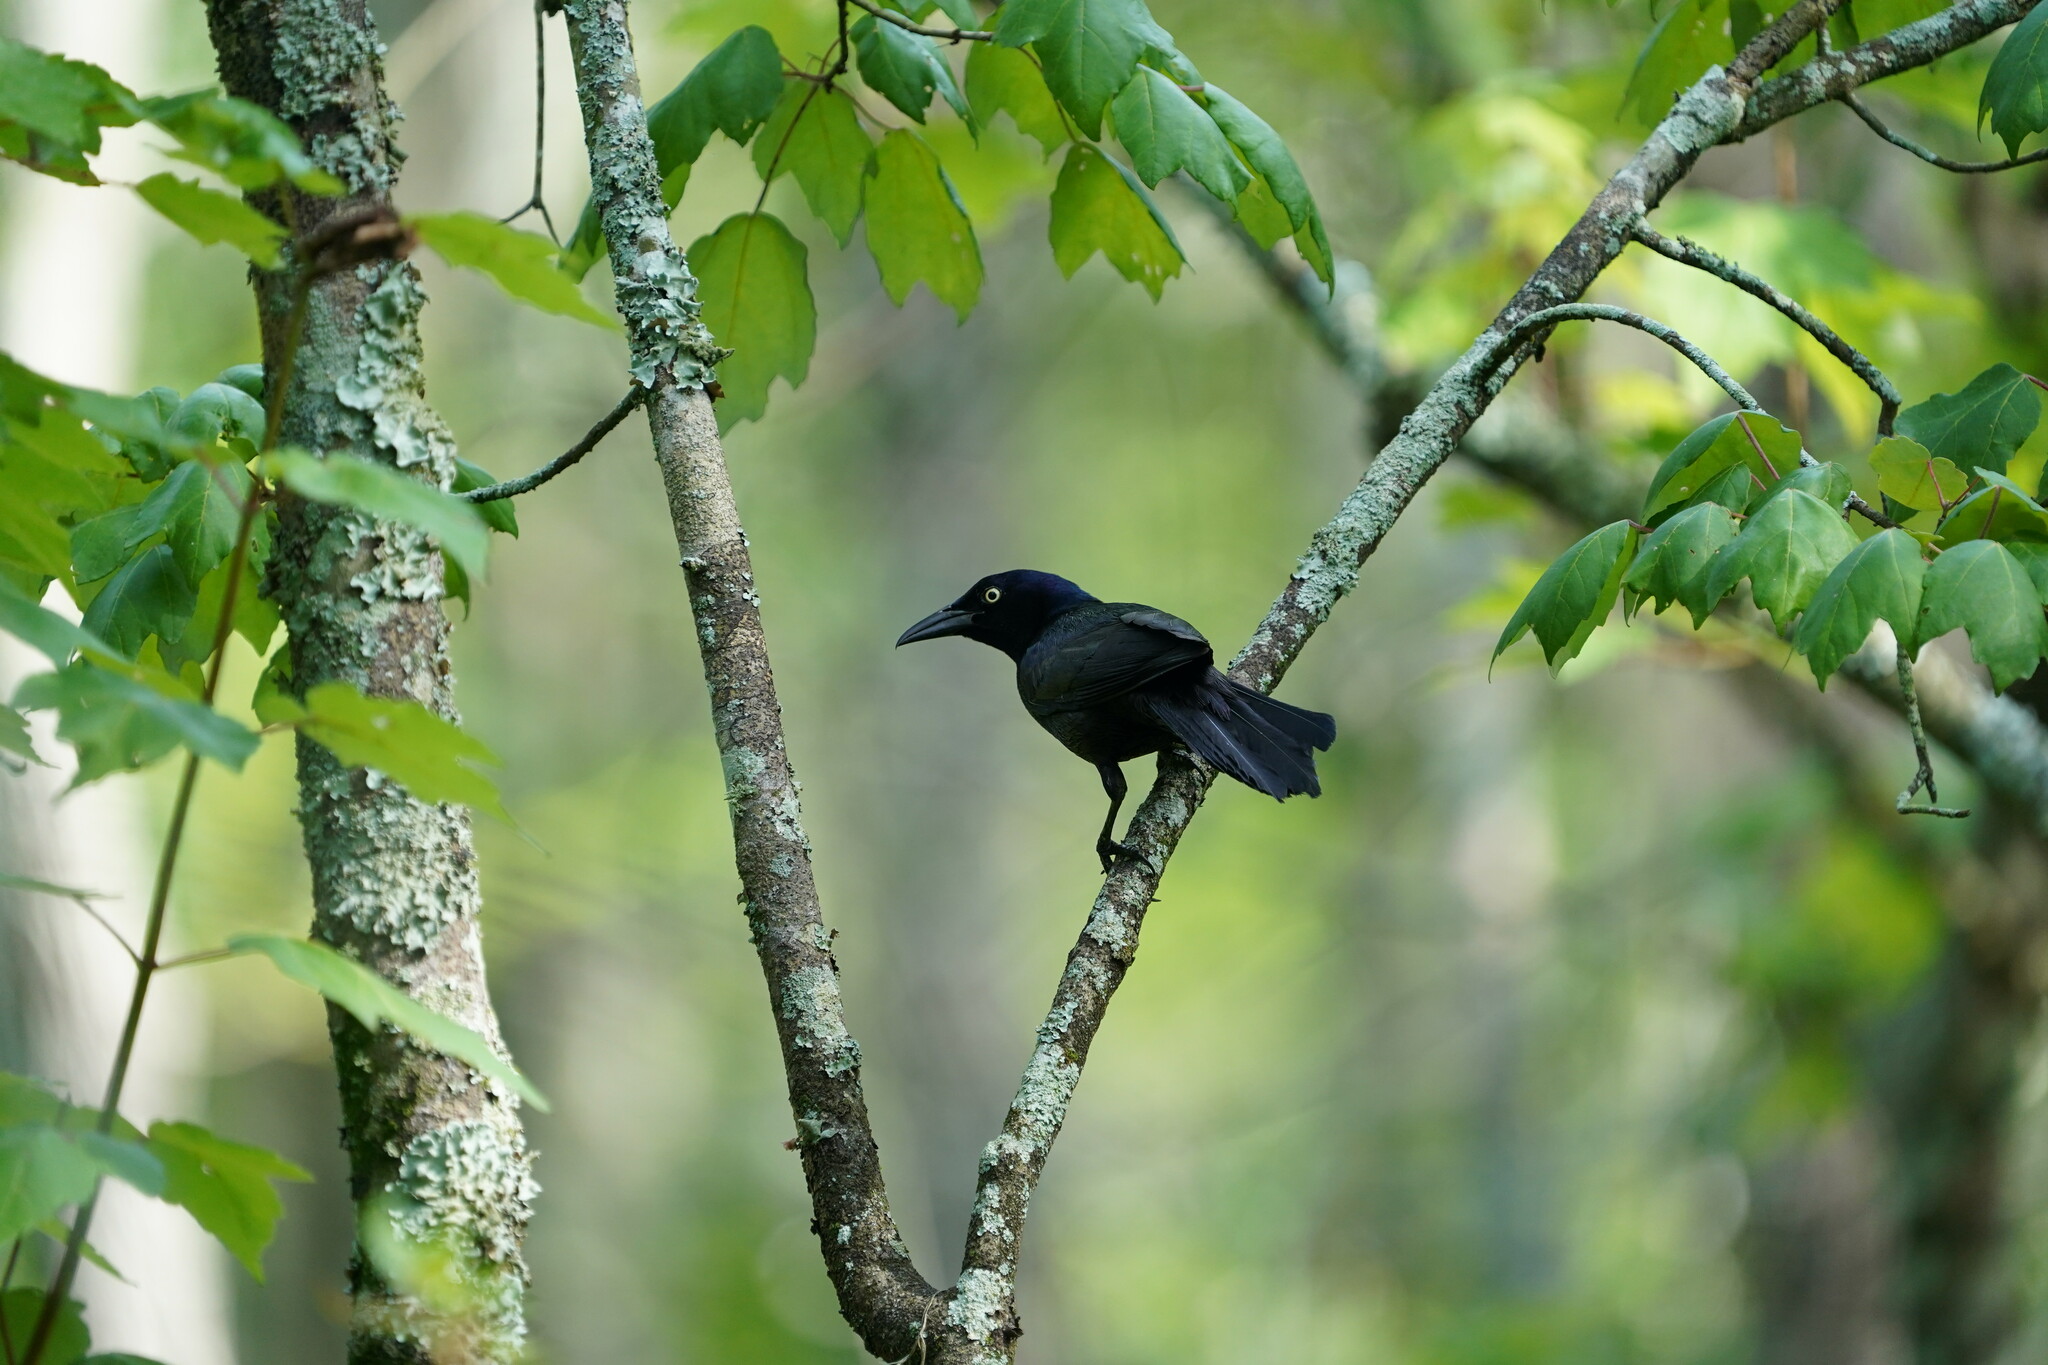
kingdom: Animalia
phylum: Chordata
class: Aves
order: Passeriformes
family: Icteridae
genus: Quiscalus
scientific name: Quiscalus quiscula
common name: Common grackle
